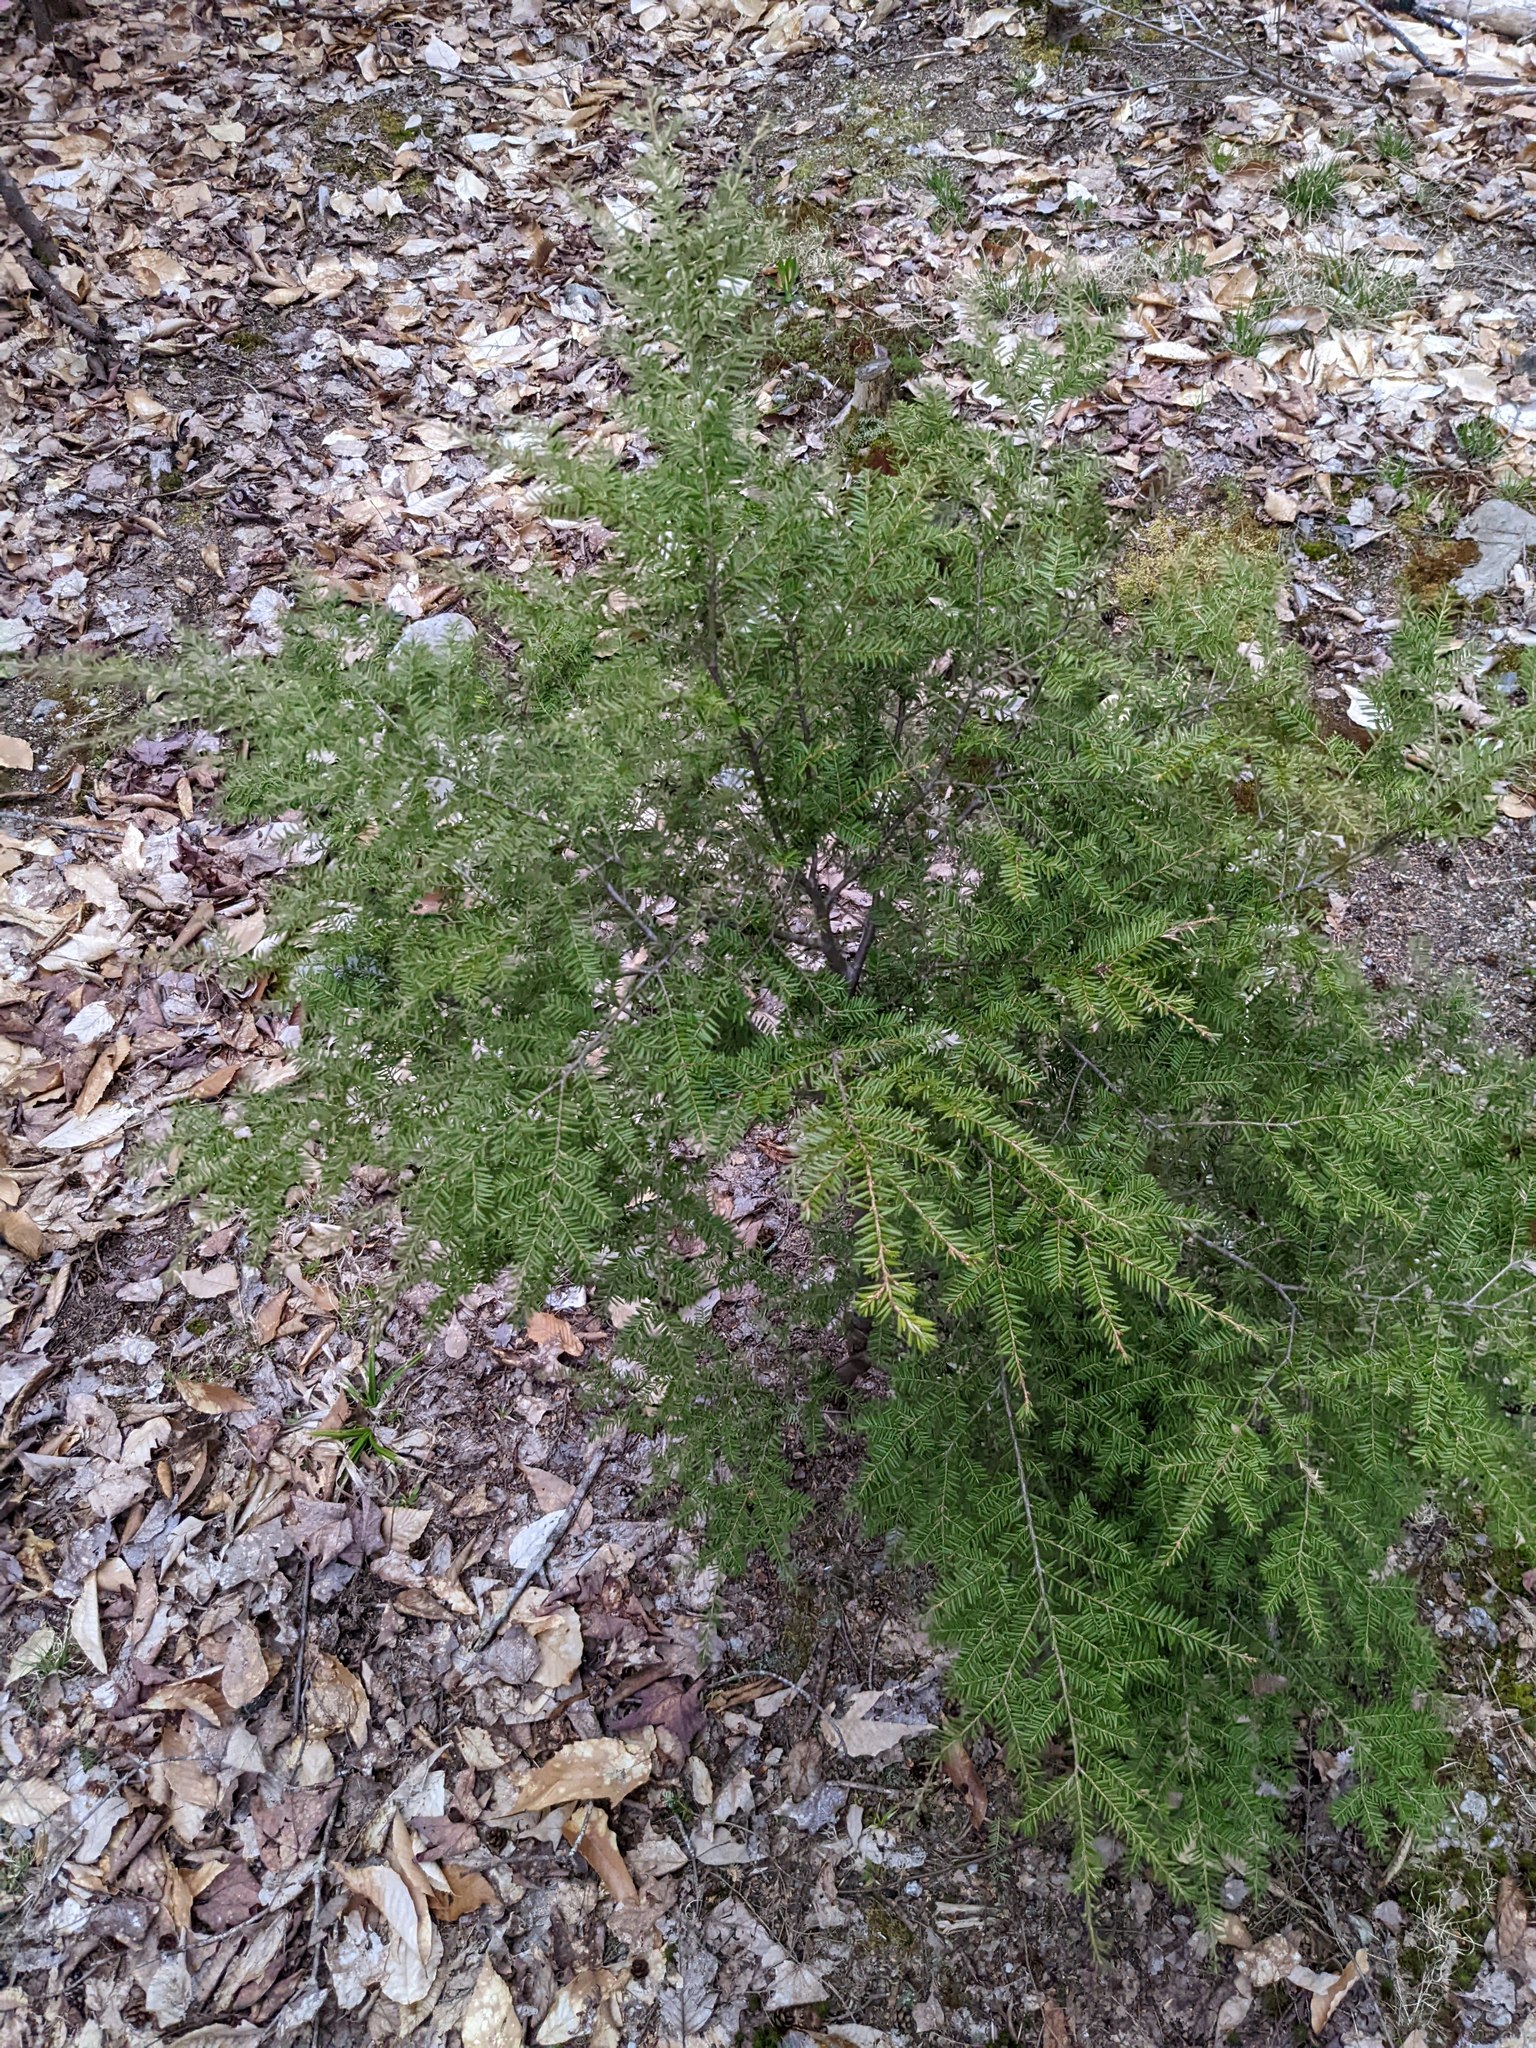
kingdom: Plantae
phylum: Tracheophyta
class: Pinopsida
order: Pinales
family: Pinaceae
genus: Tsuga
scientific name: Tsuga canadensis
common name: Eastern hemlock
